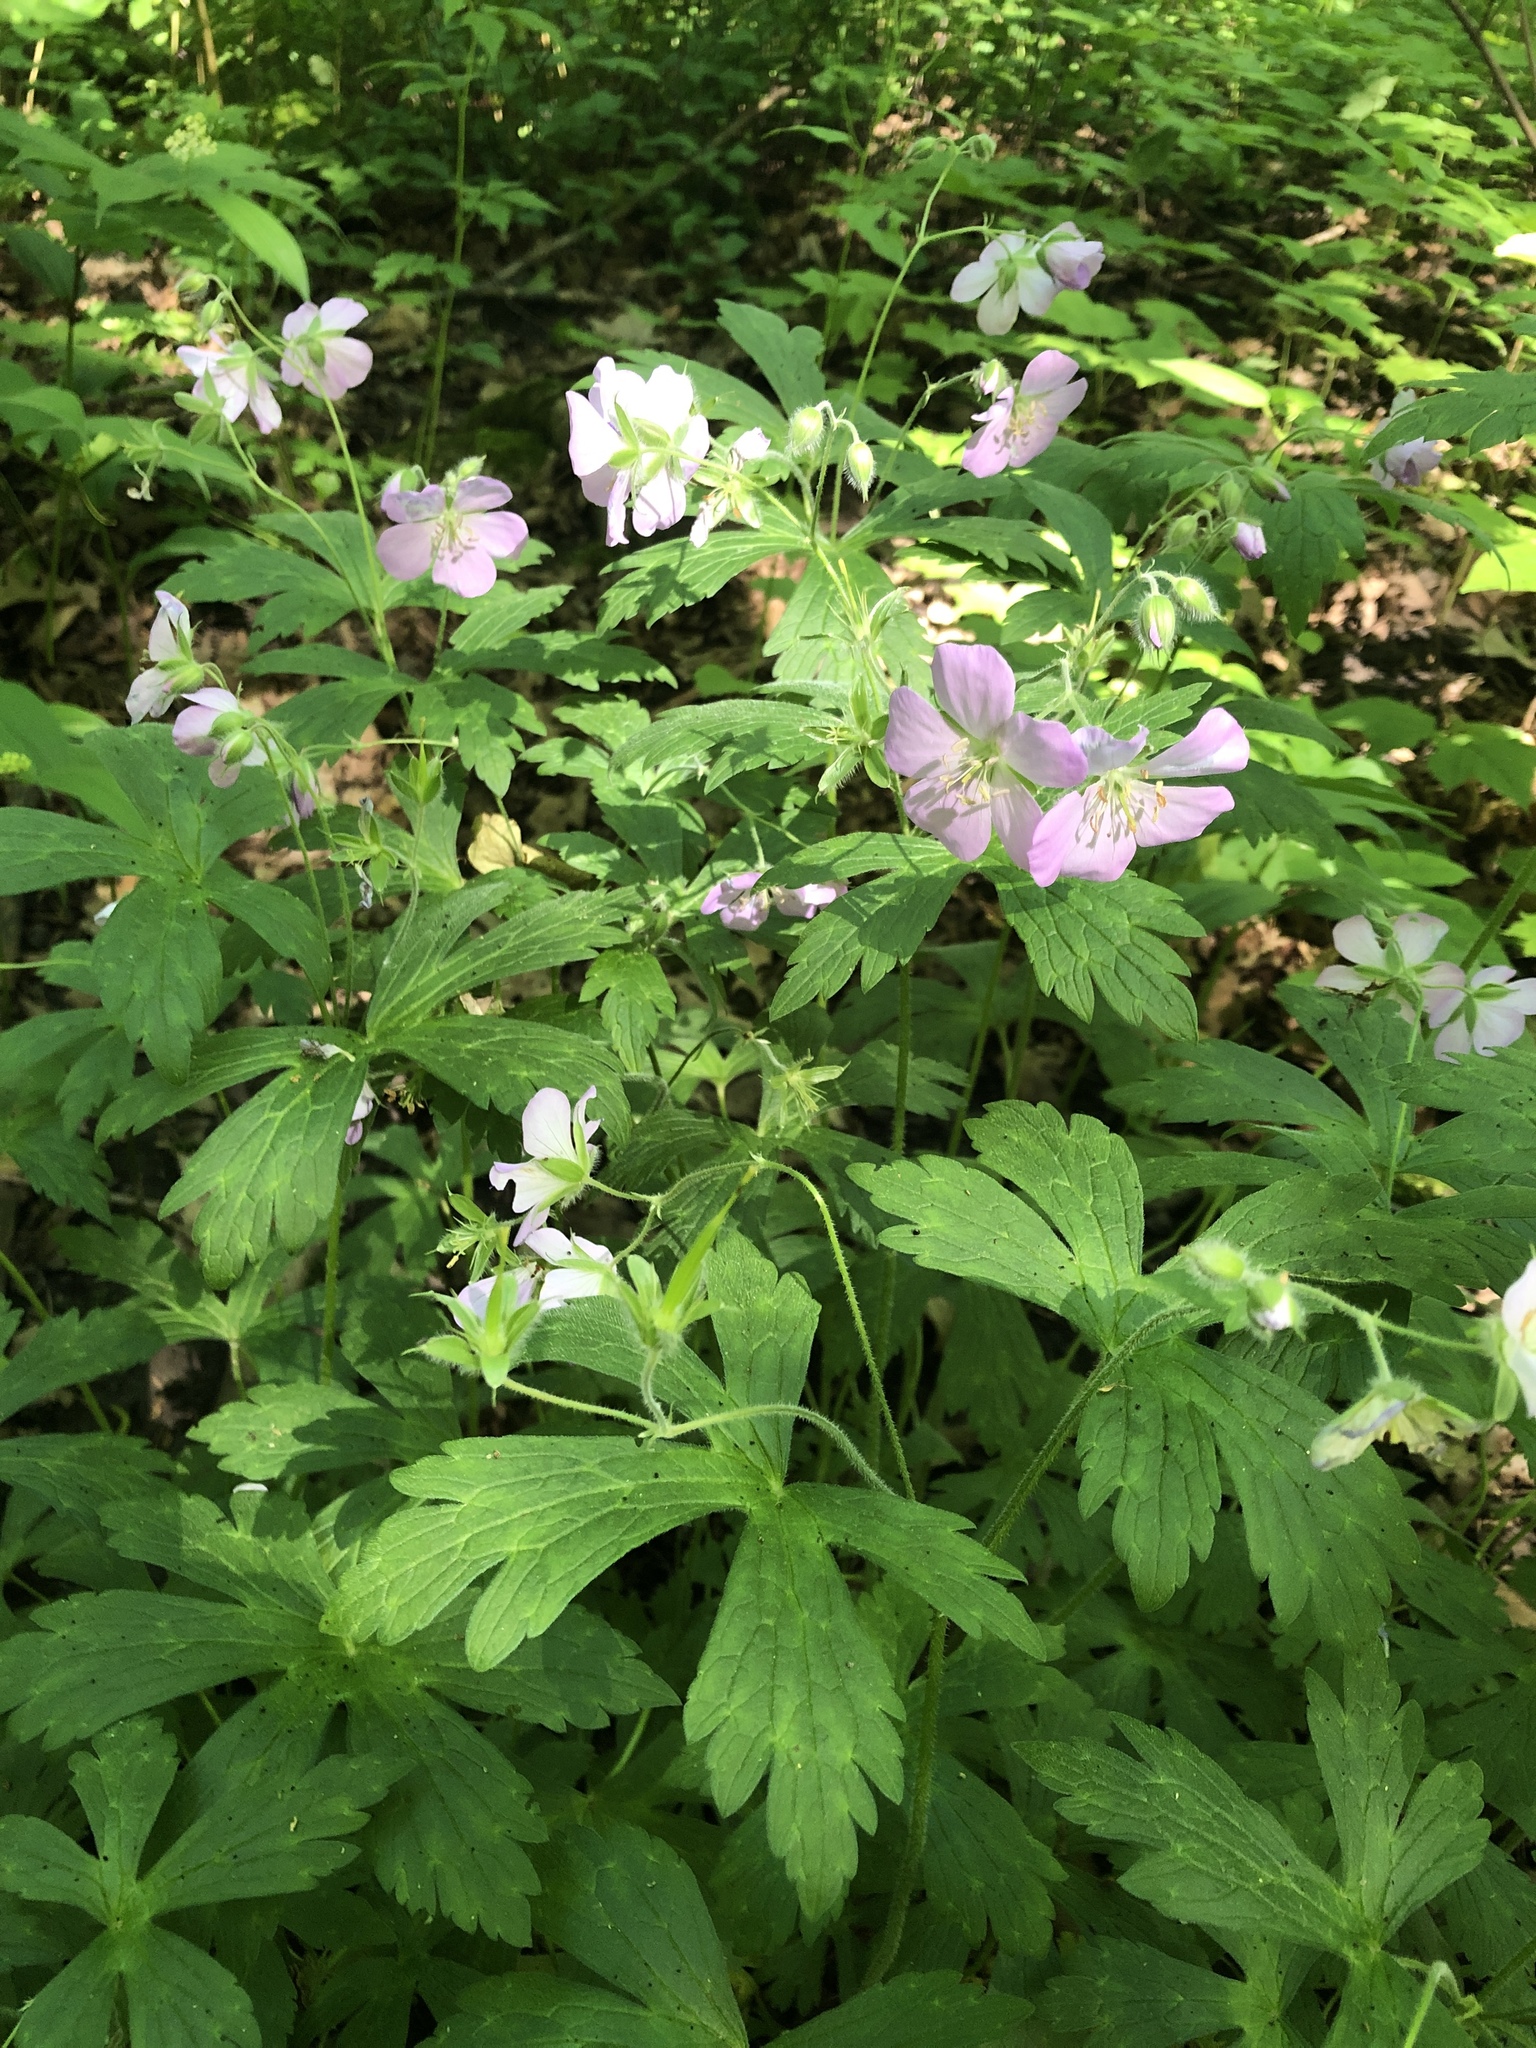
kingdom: Plantae
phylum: Tracheophyta
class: Magnoliopsida
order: Geraniales
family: Geraniaceae
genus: Geranium
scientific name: Geranium maculatum
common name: Spotted geranium
